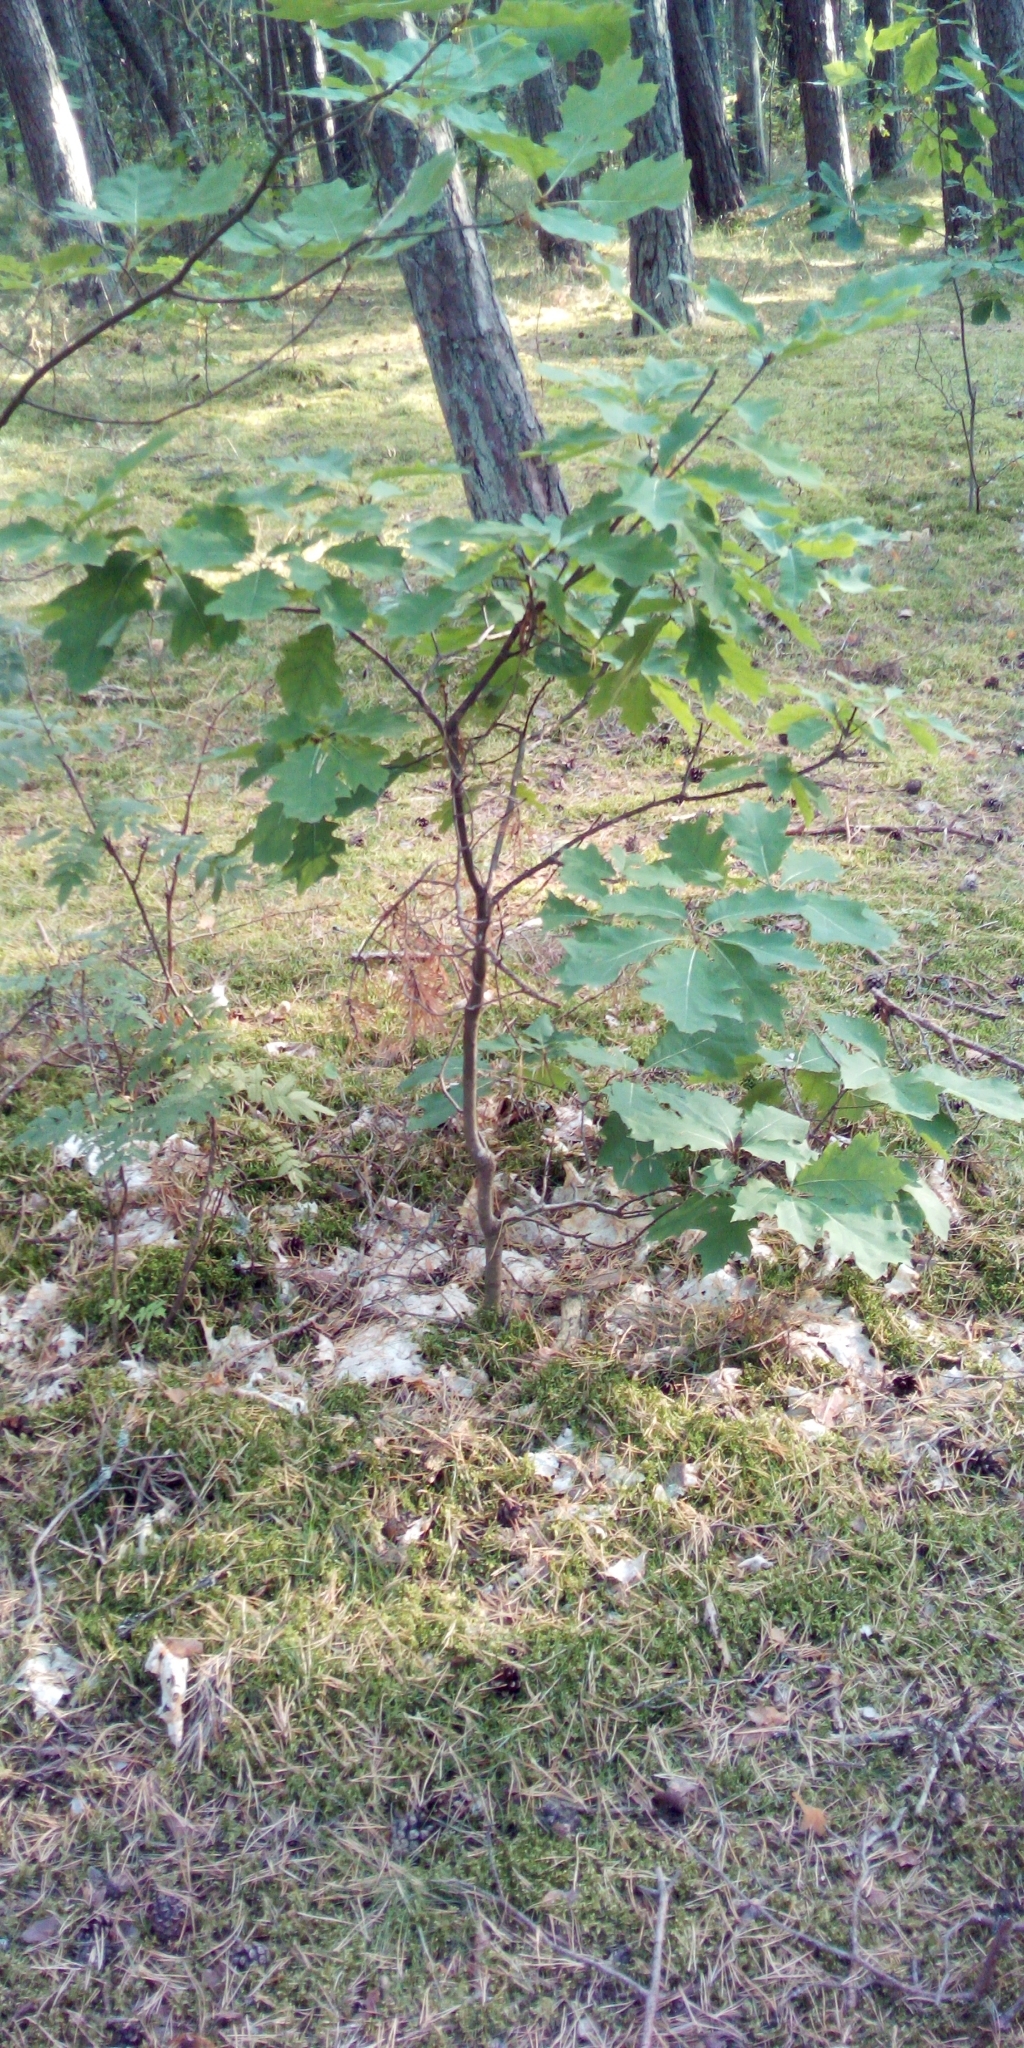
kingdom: Plantae
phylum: Tracheophyta
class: Magnoliopsida
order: Fagales
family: Fagaceae
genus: Quercus
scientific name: Quercus rubra
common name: Red oak
